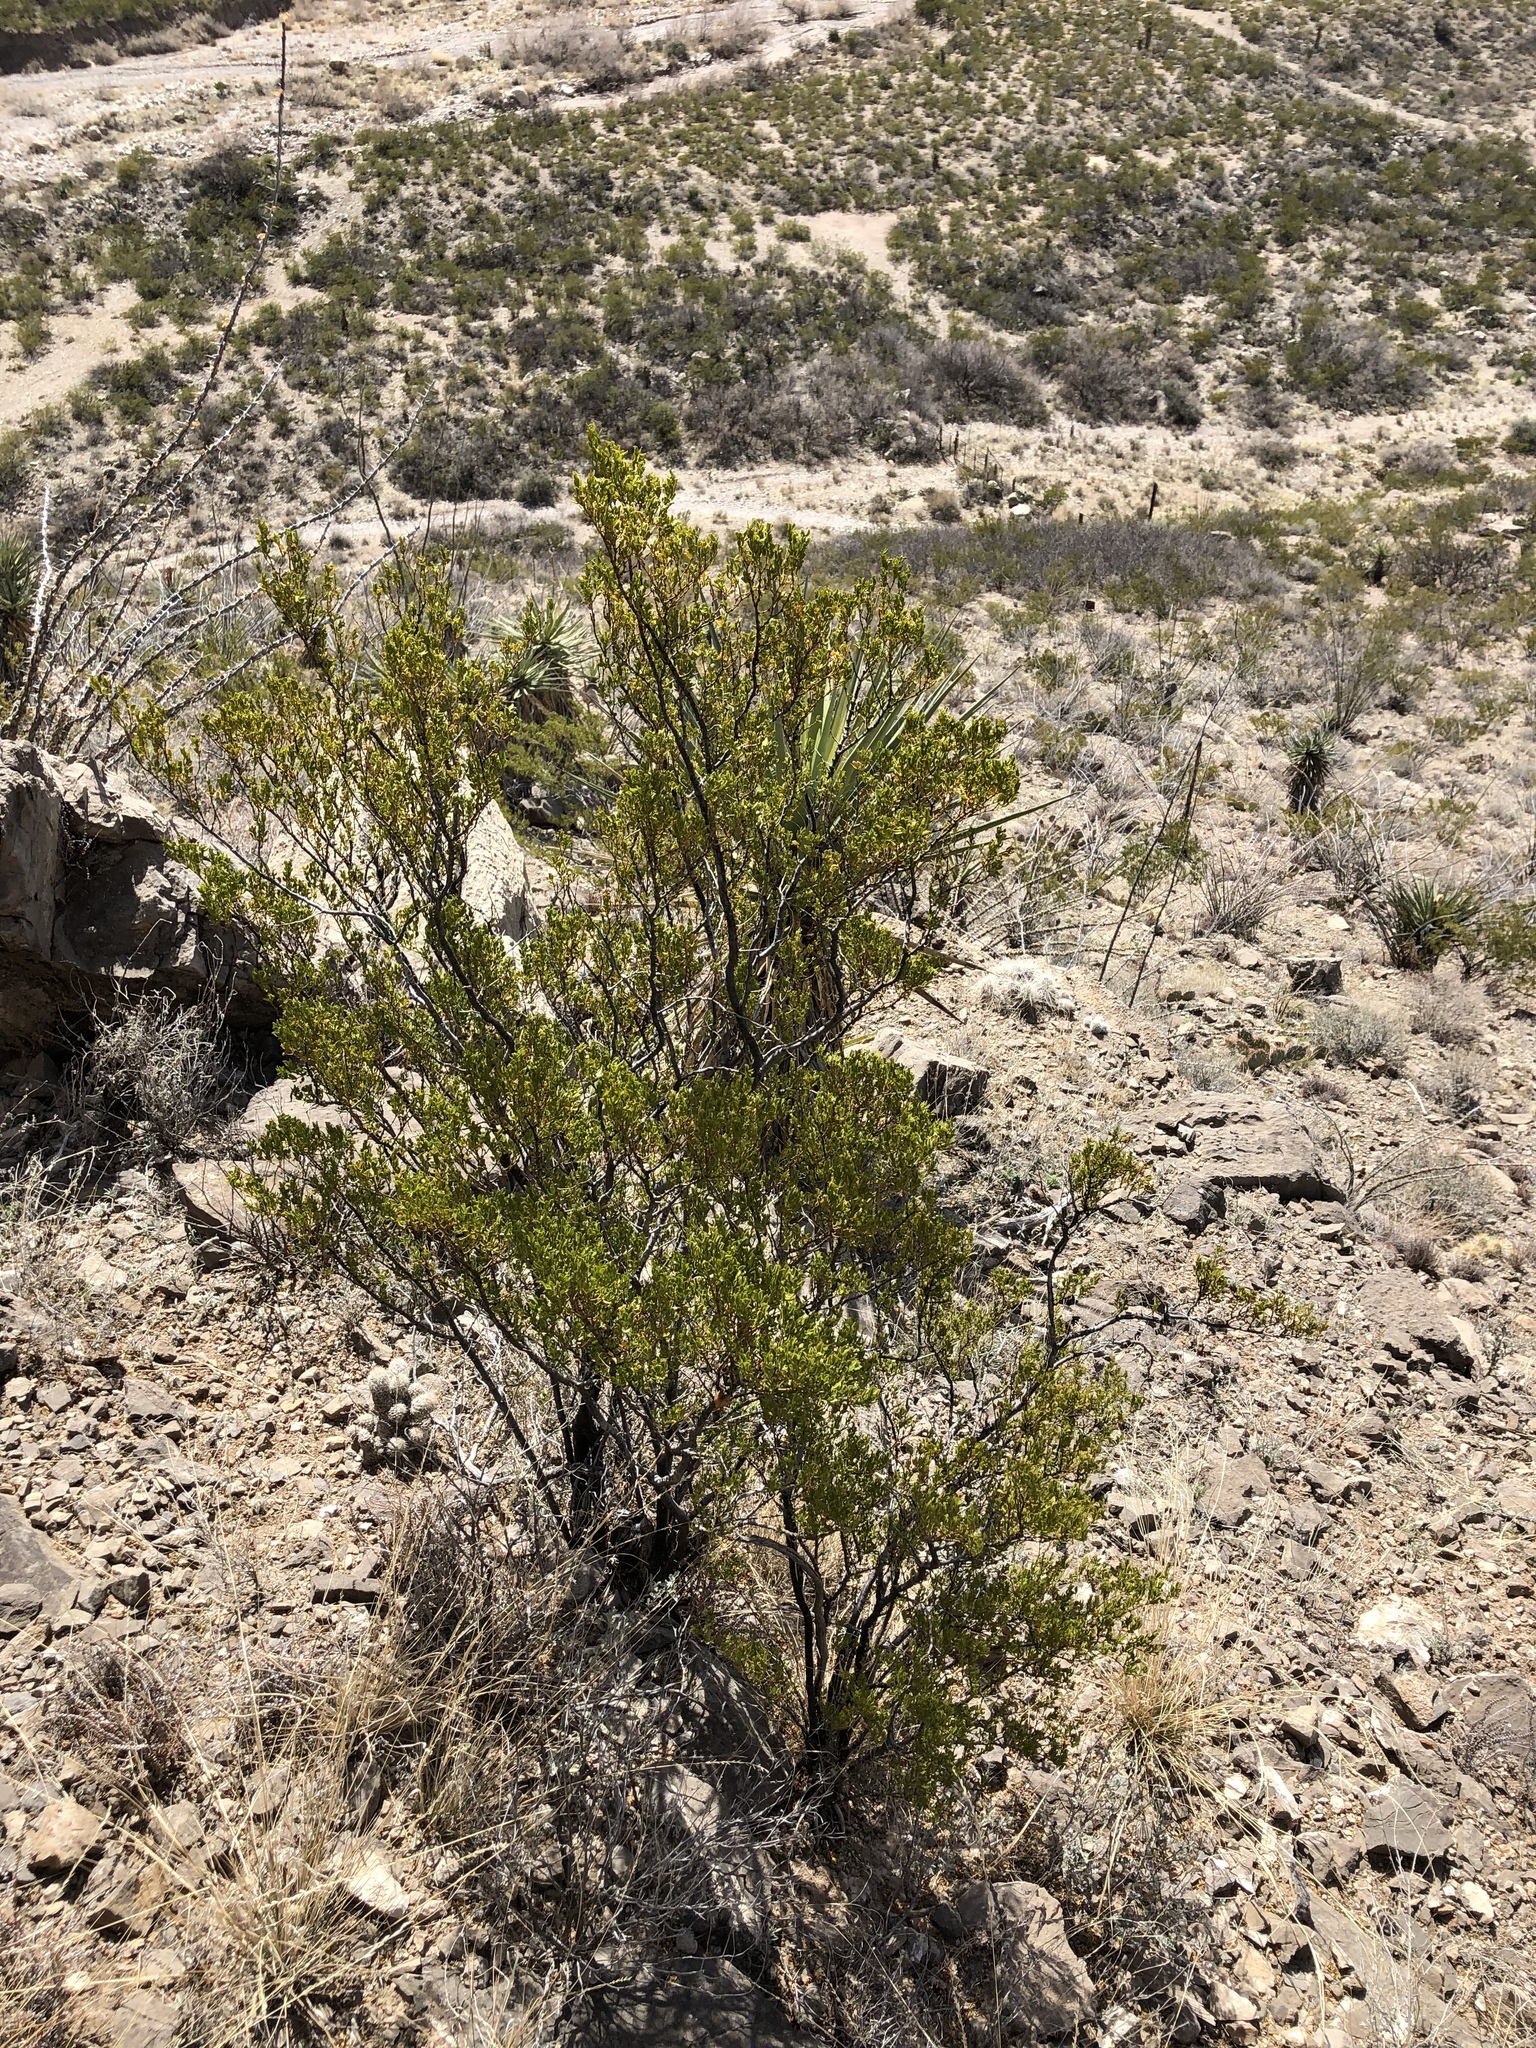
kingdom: Plantae
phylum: Tracheophyta
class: Magnoliopsida
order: Zygophyllales
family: Zygophyllaceae
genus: Larrea
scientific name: Larrea tridentata
